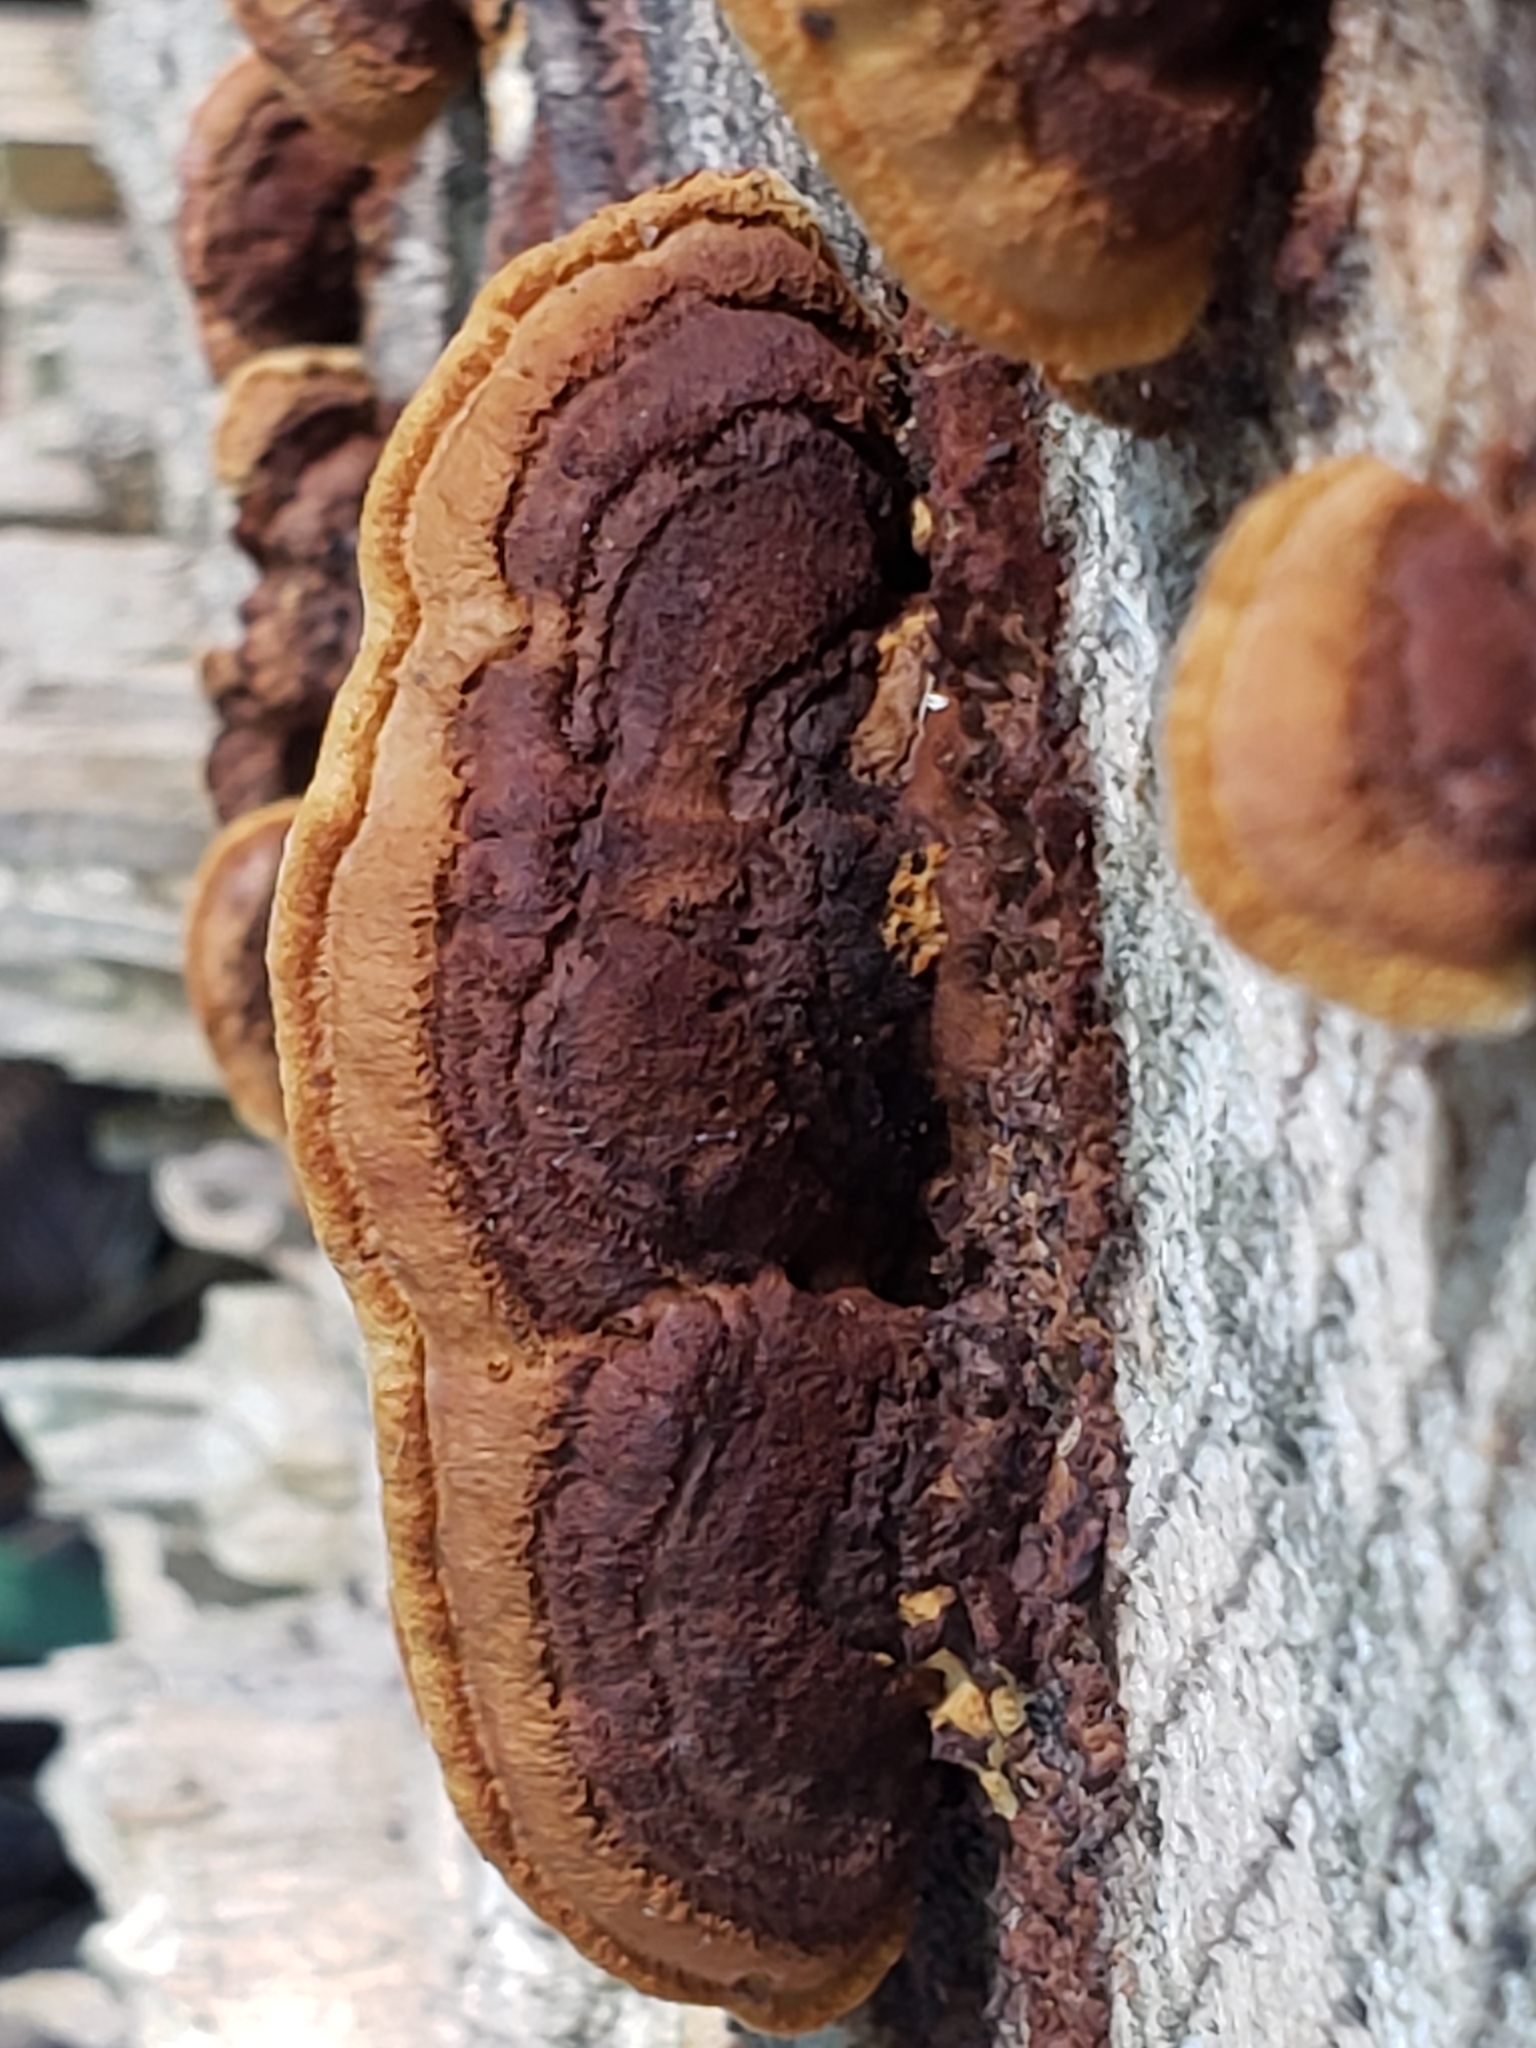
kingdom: Fungi
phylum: Basidiomycota
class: Agaricomycetes
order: Gloeophyllales
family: Gloeophyllaceae
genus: Gloeophyllum
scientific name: Gloeophyllum sepiarium
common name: Conifer mazegill
